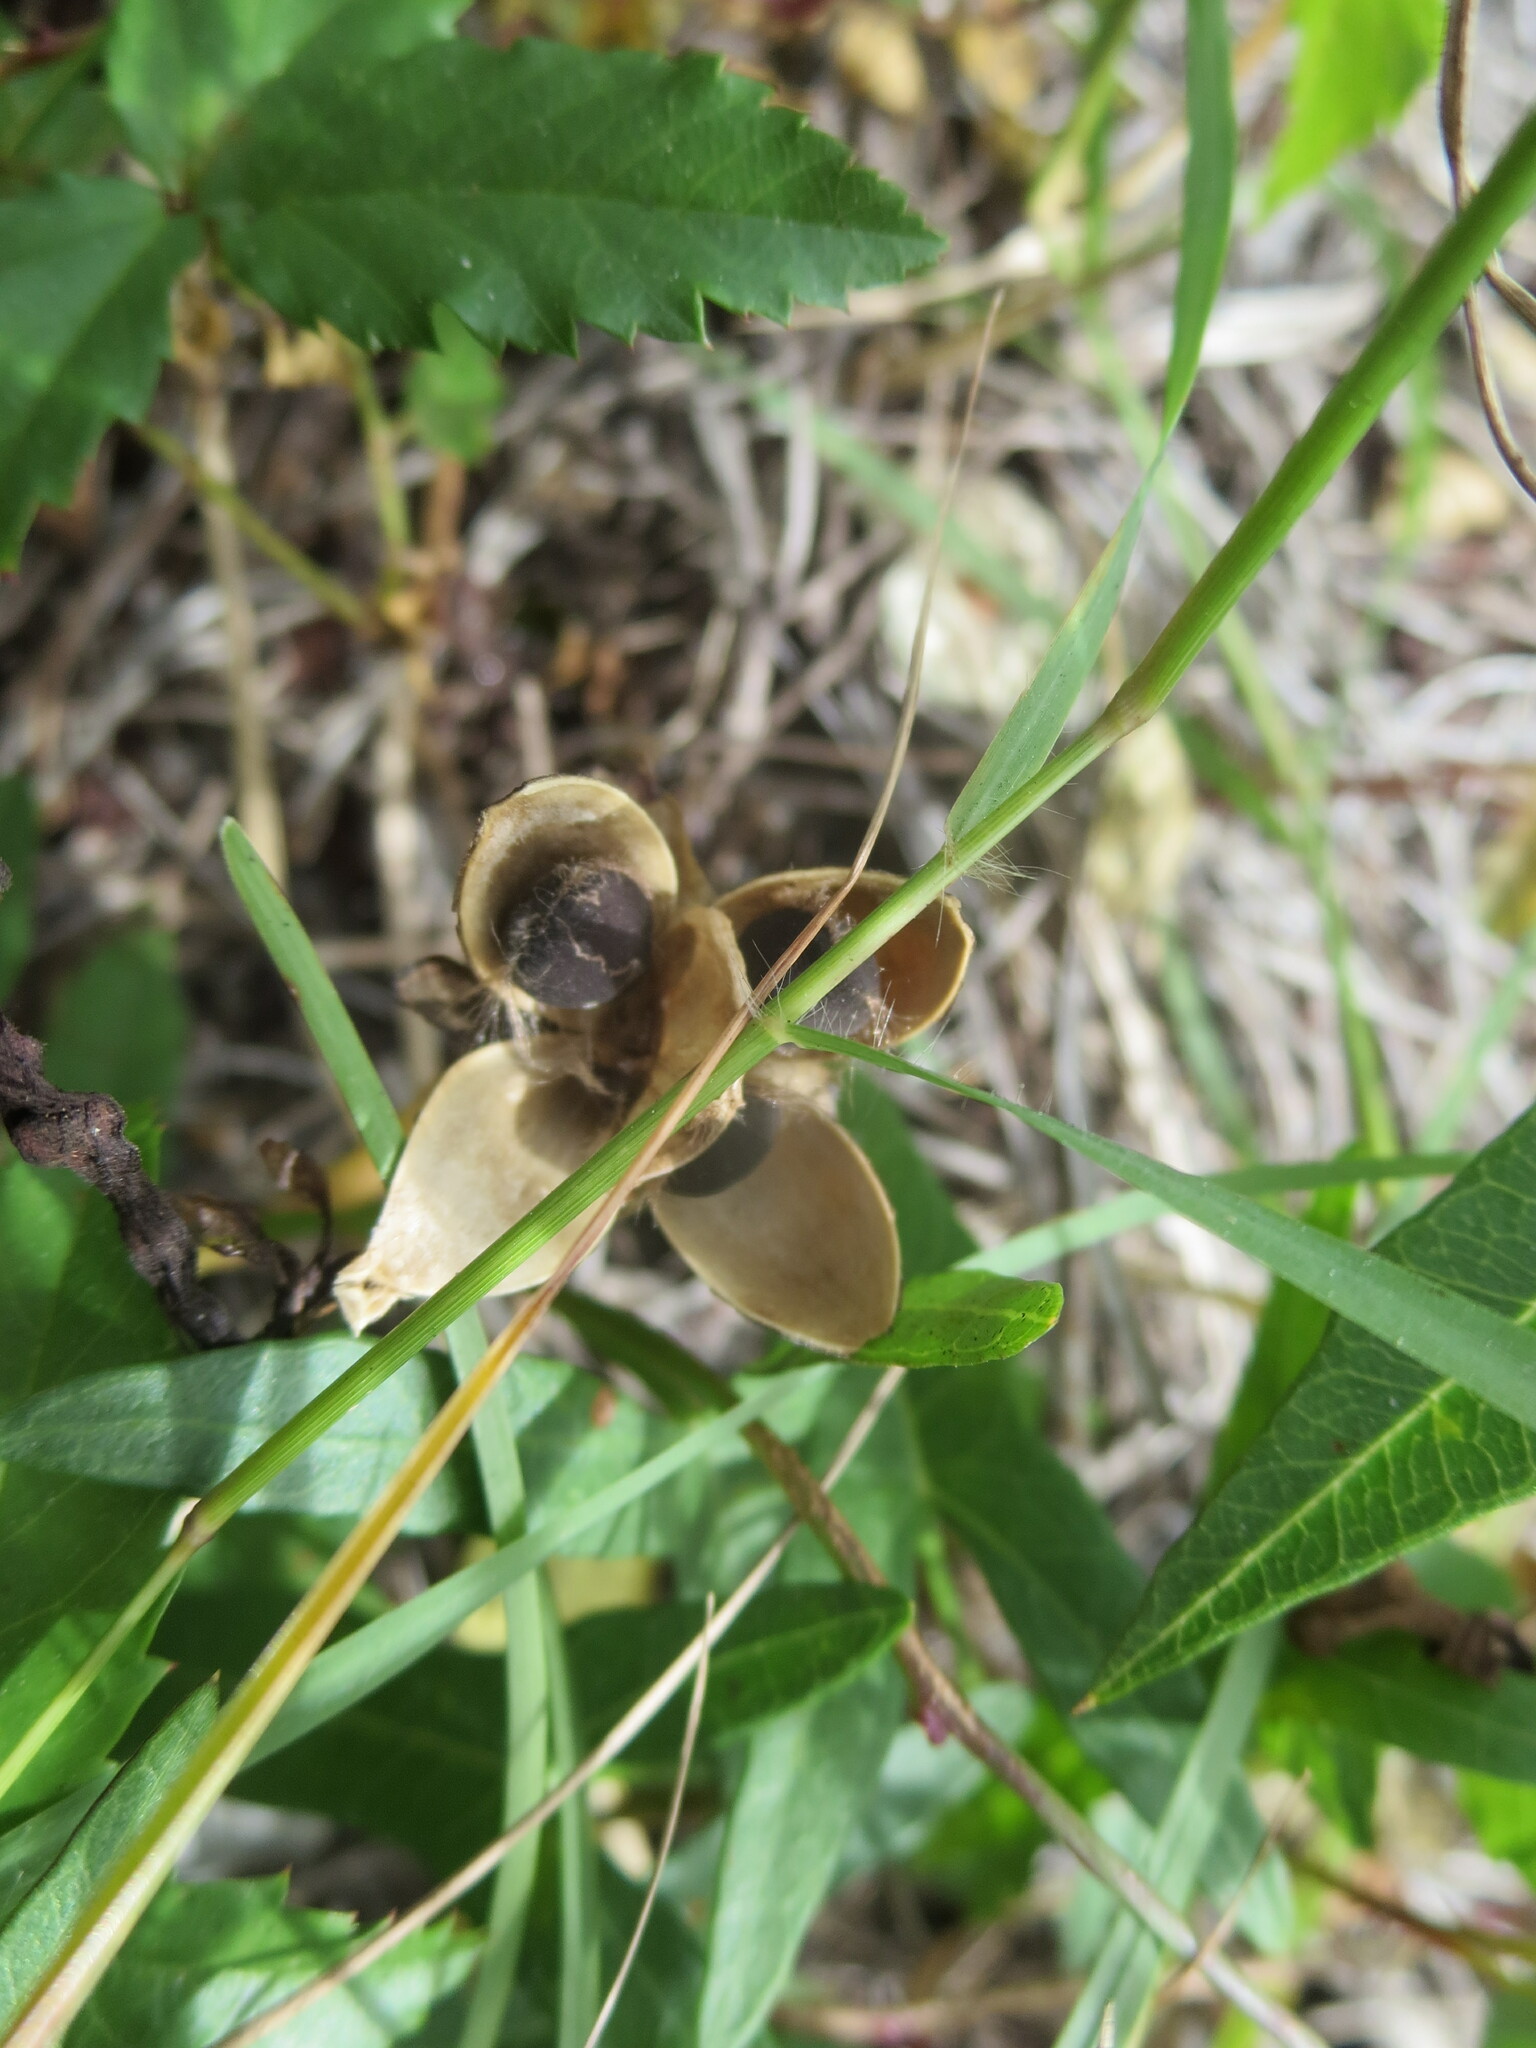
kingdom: Plantae
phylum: Tracheophyta
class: Magnoliopsida
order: Solanales
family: Convolvulaceae
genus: Ipomoea
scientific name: Ipomoea sagittata
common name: Saltmarsh morning glory
